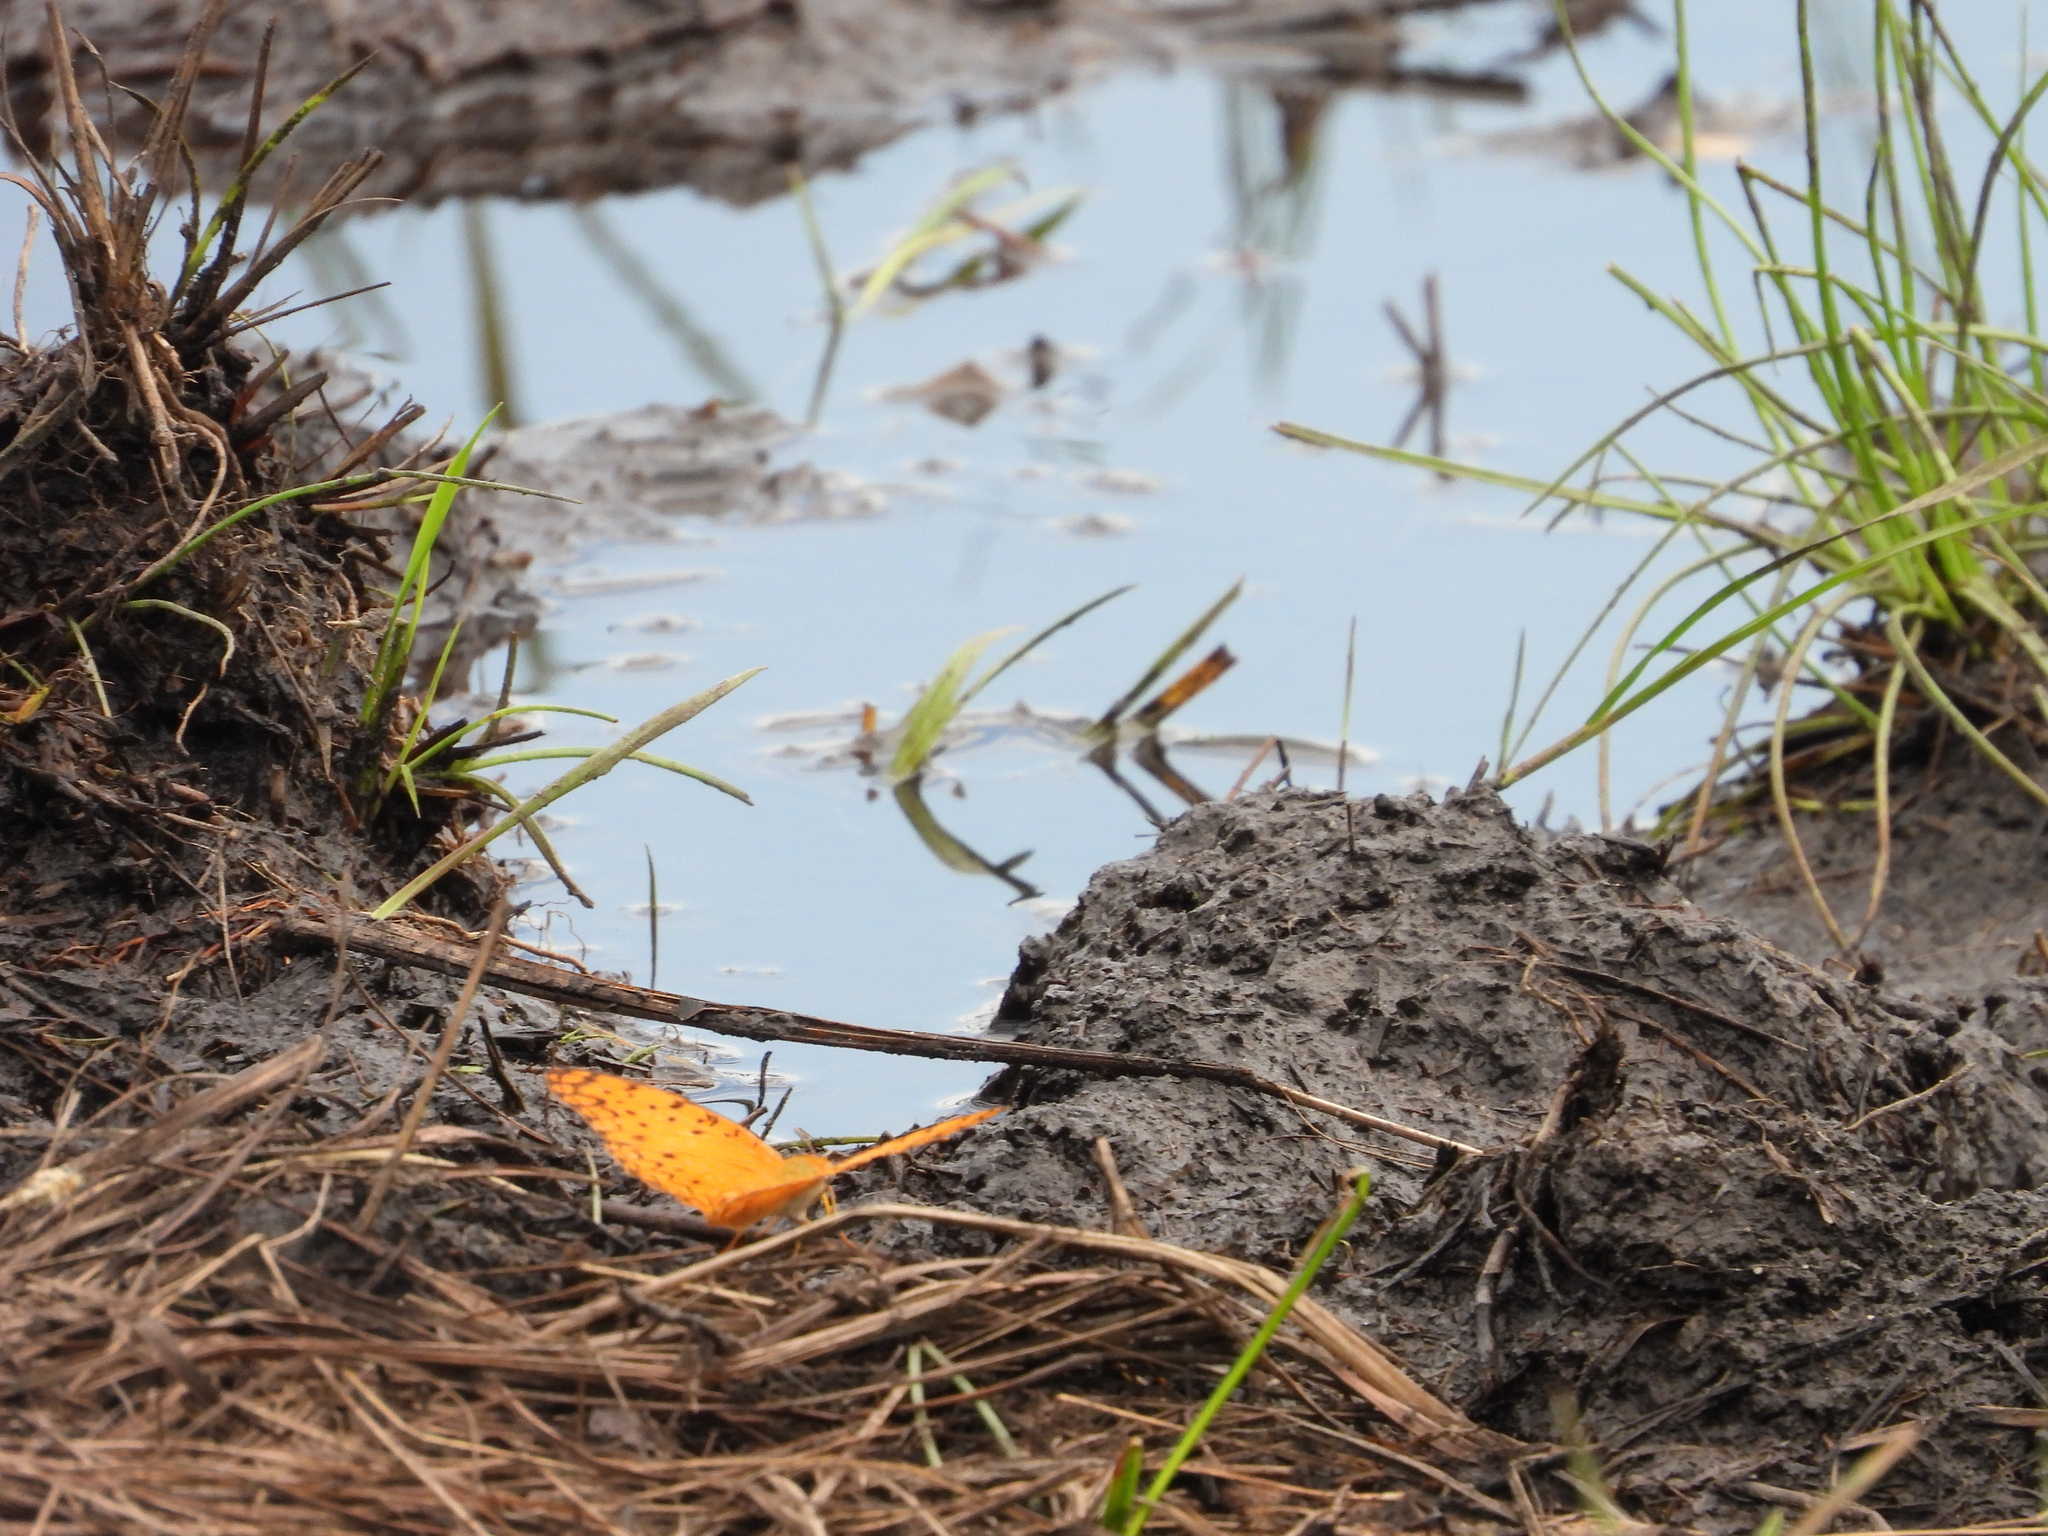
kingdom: Animalia
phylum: Arthropoda
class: Insecta
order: Lepidoptera
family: Nymphalidae
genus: Phalanta
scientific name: Phalanta phalantha
